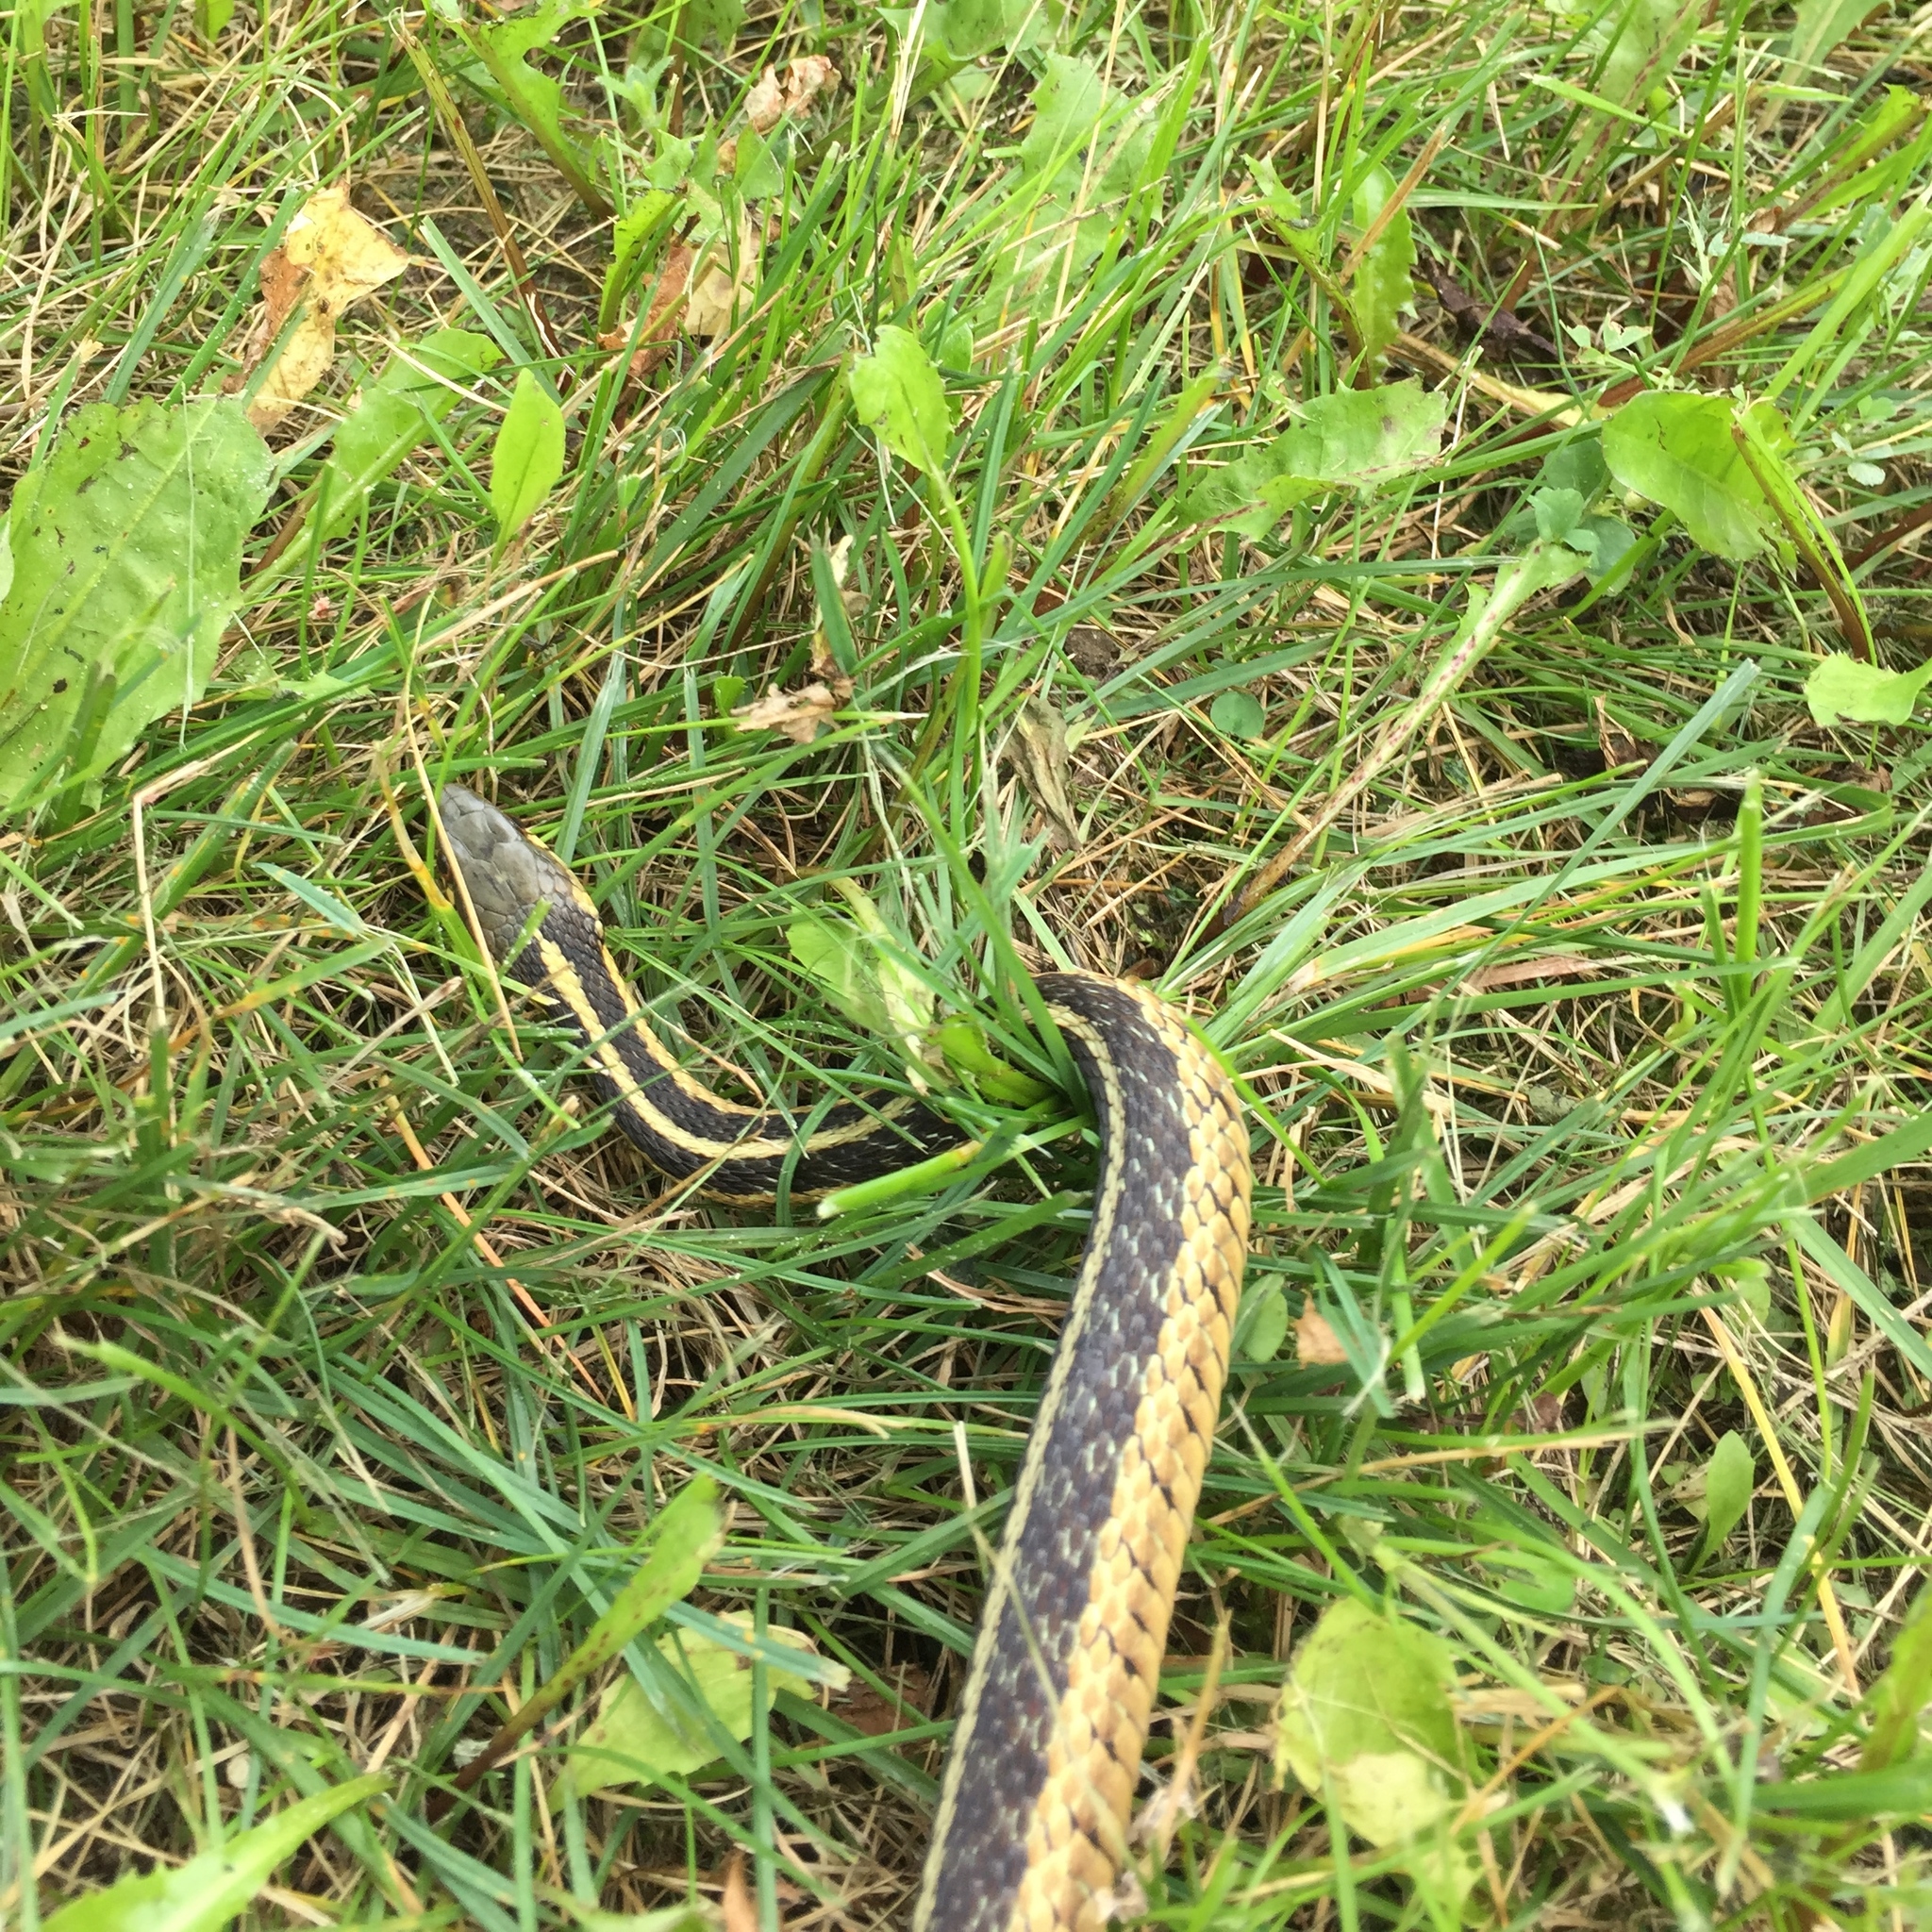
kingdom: Animalia
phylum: Chordata
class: Squamata
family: Colubridae
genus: Thamnophis
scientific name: Thamnophis sirtalis
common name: Common garter snake
